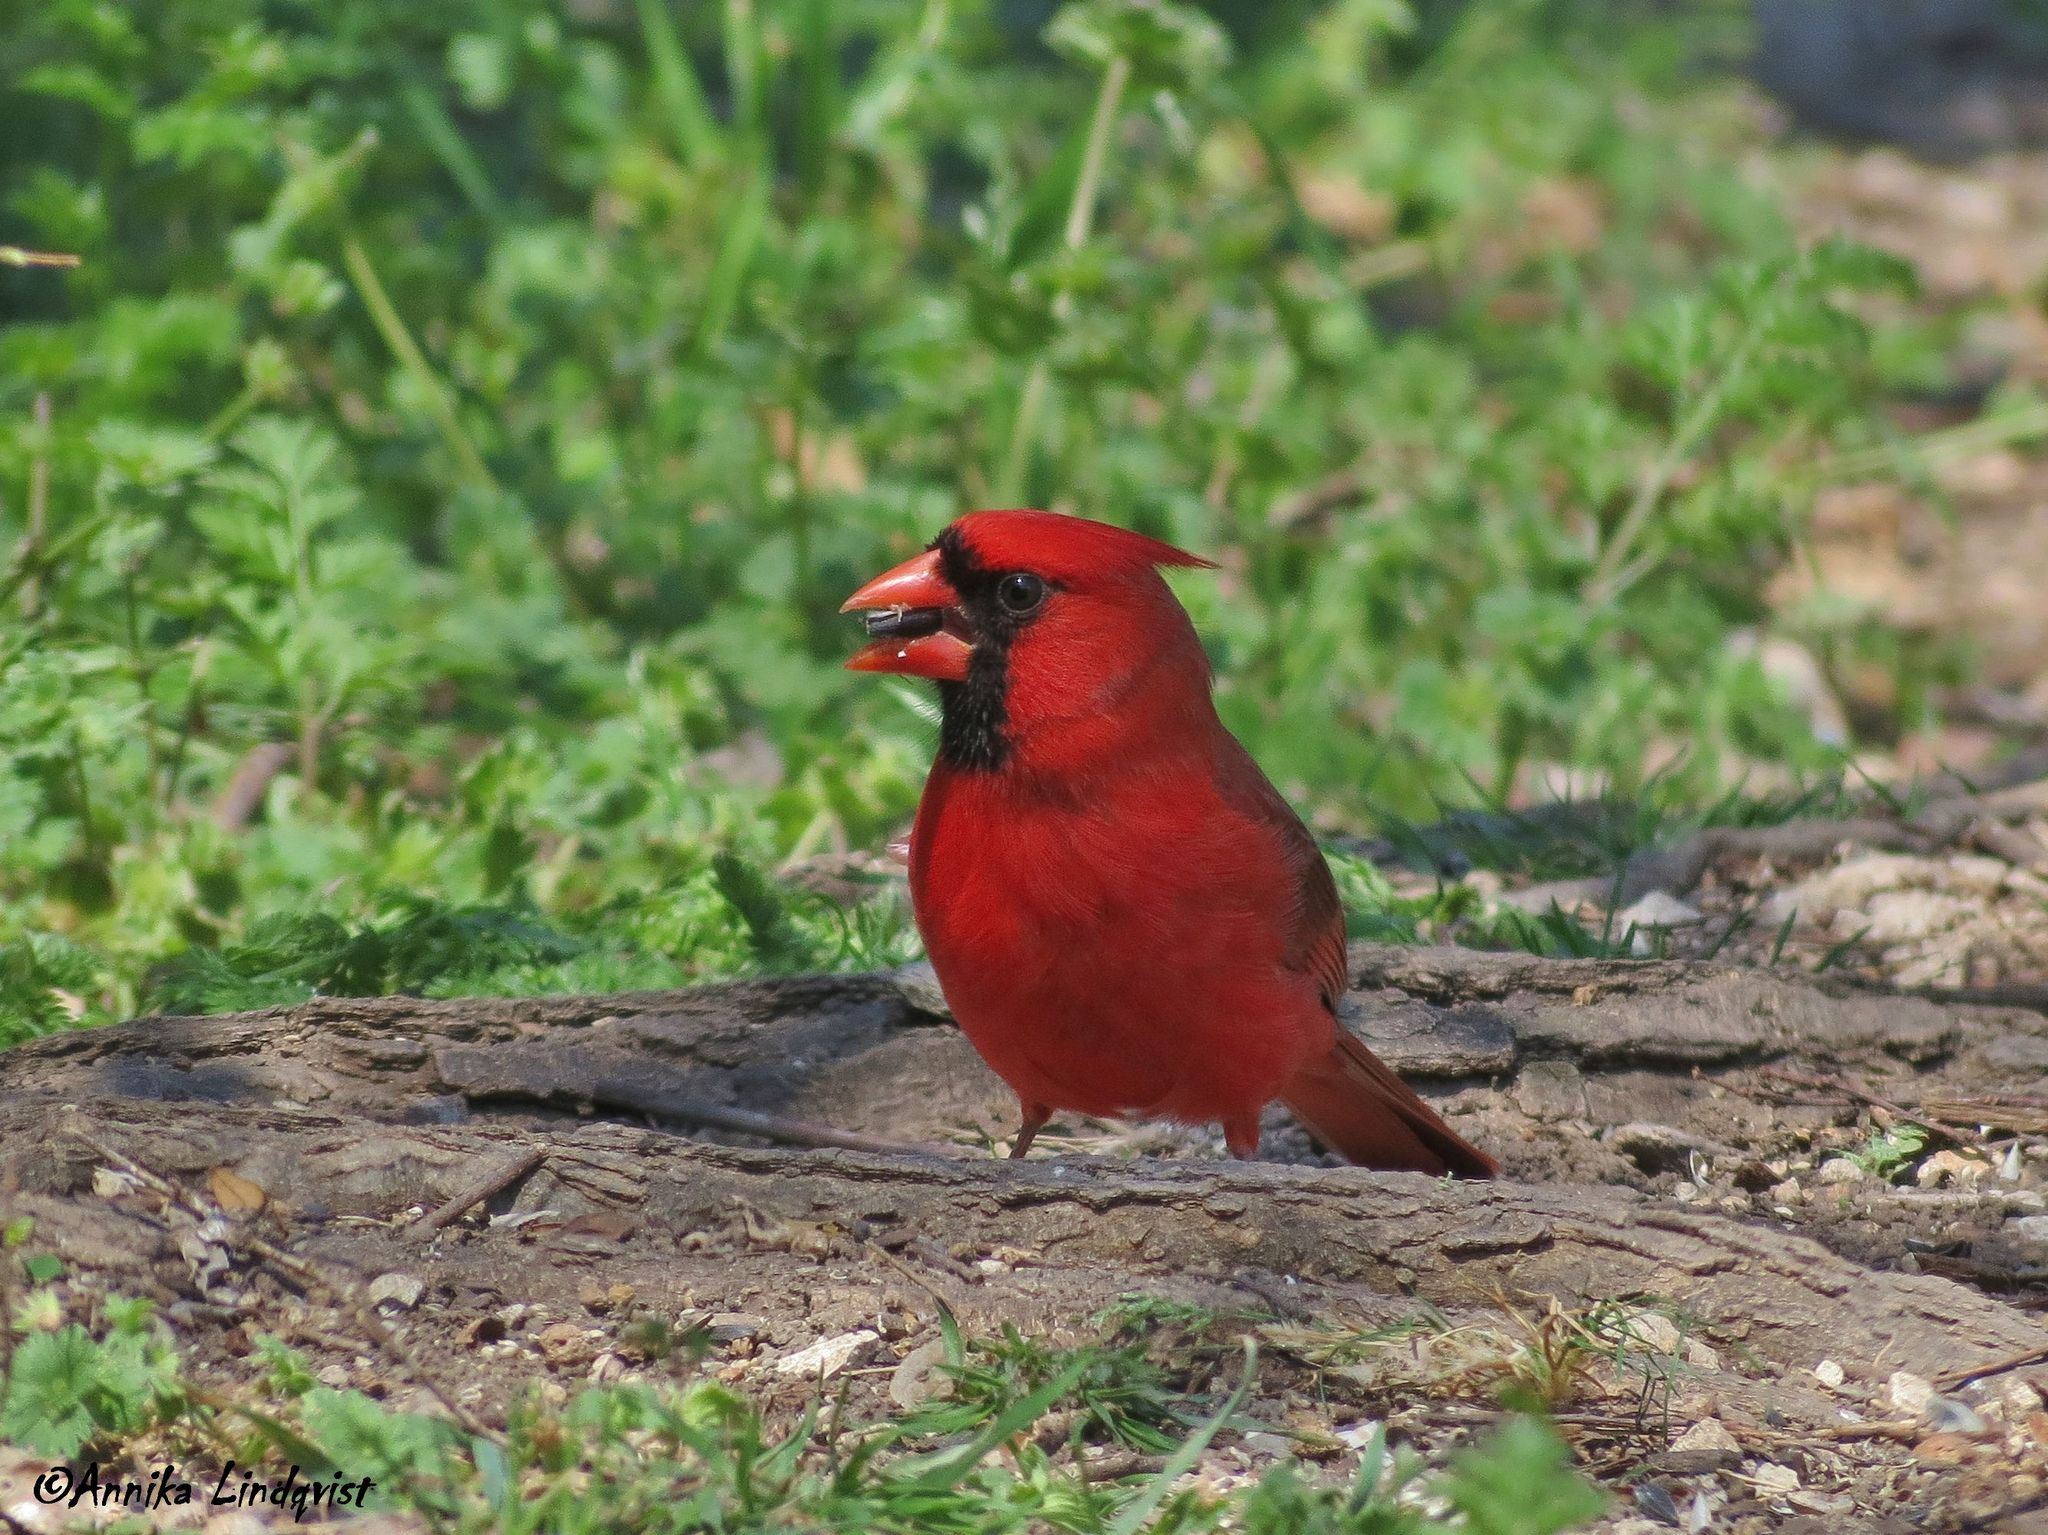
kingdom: Animalia
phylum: Chordata
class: Aves
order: Passeriformes
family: Cardinalidae
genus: Cardinalis
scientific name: Cardinalis cardinalis
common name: Northern cardinal
